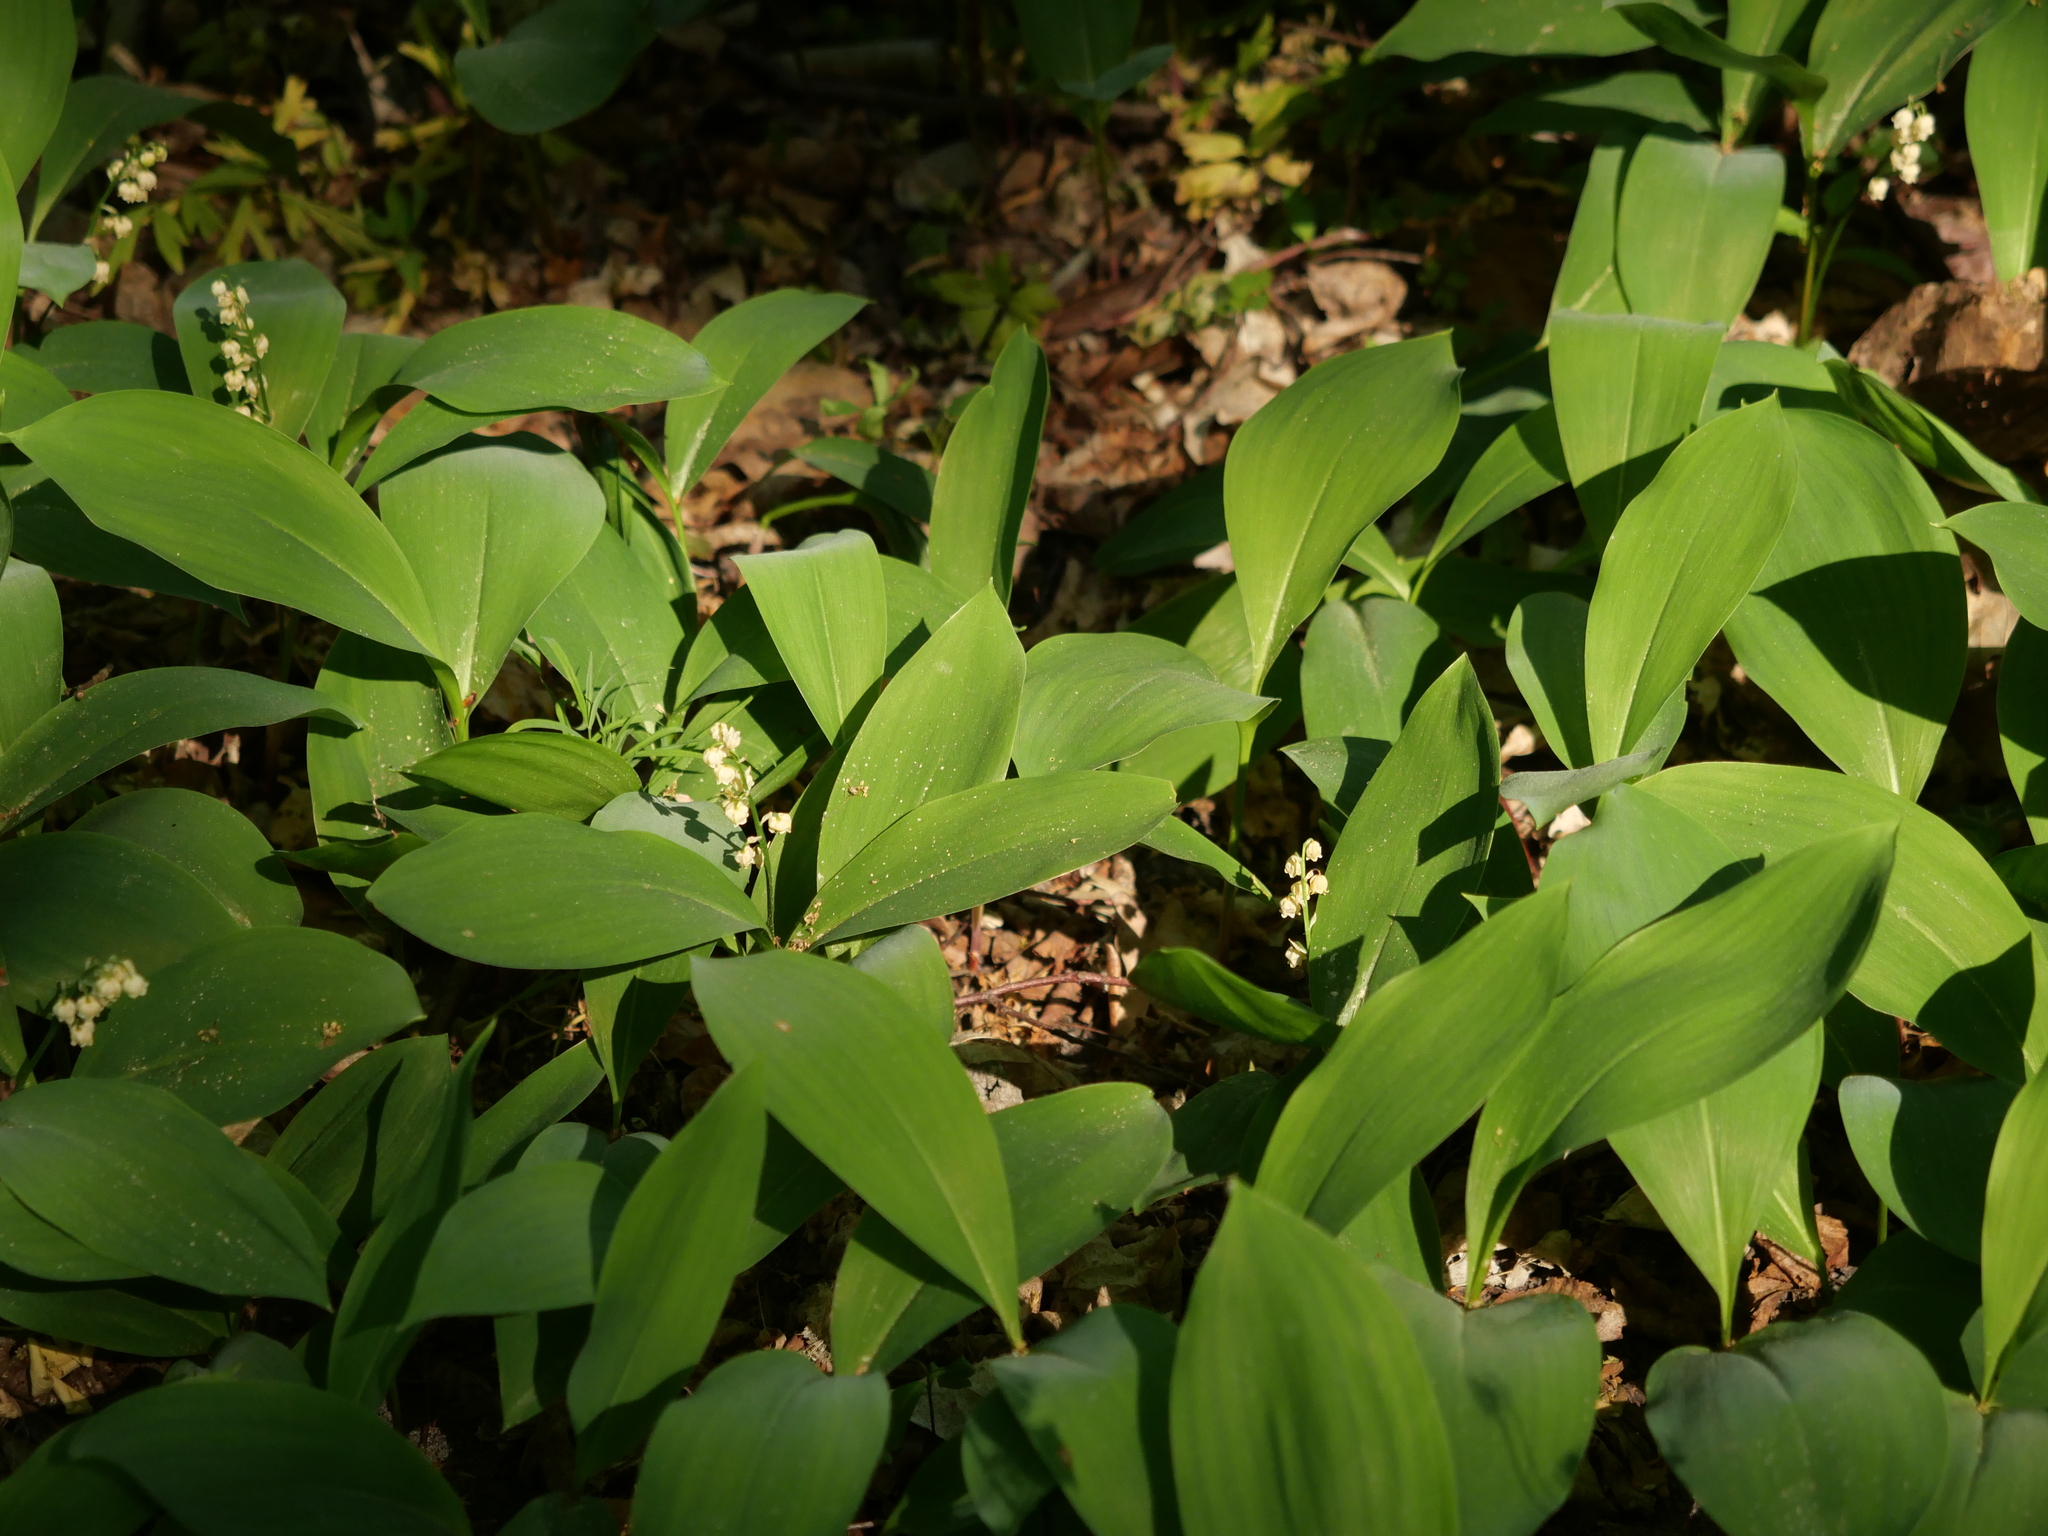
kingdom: Plantae
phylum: Tracheophyta
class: Liliopsida
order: Asparagales
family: Asparagaceae
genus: Convallaria
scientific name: Convallaria majalis
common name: Lily-of-the-valley
